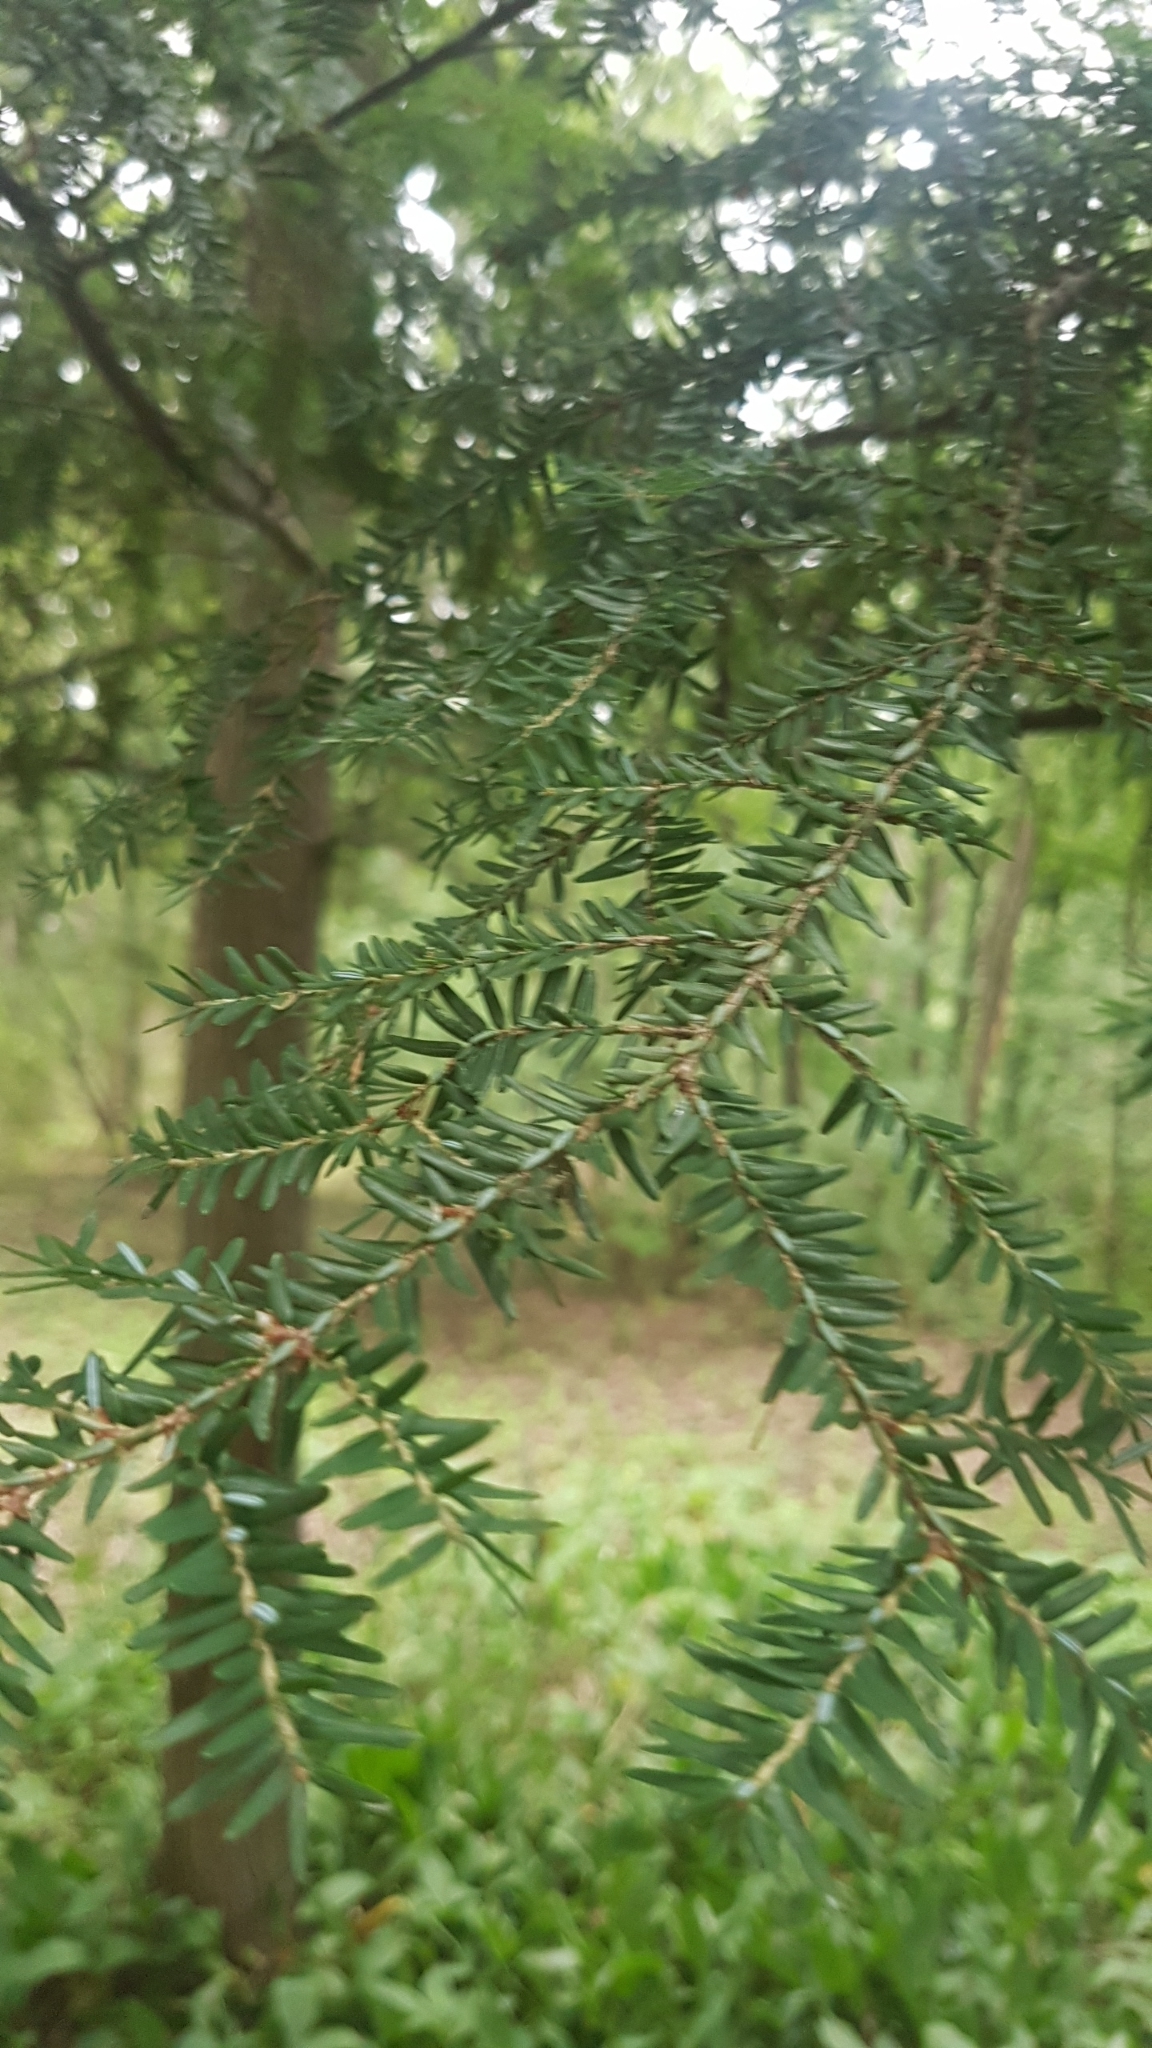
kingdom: Plantae
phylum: Tracheophyta
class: Pinopsida
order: Pinales
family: Pinaceae
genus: Tsuga
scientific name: Tsuga canadensis
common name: Eastern hemlock
